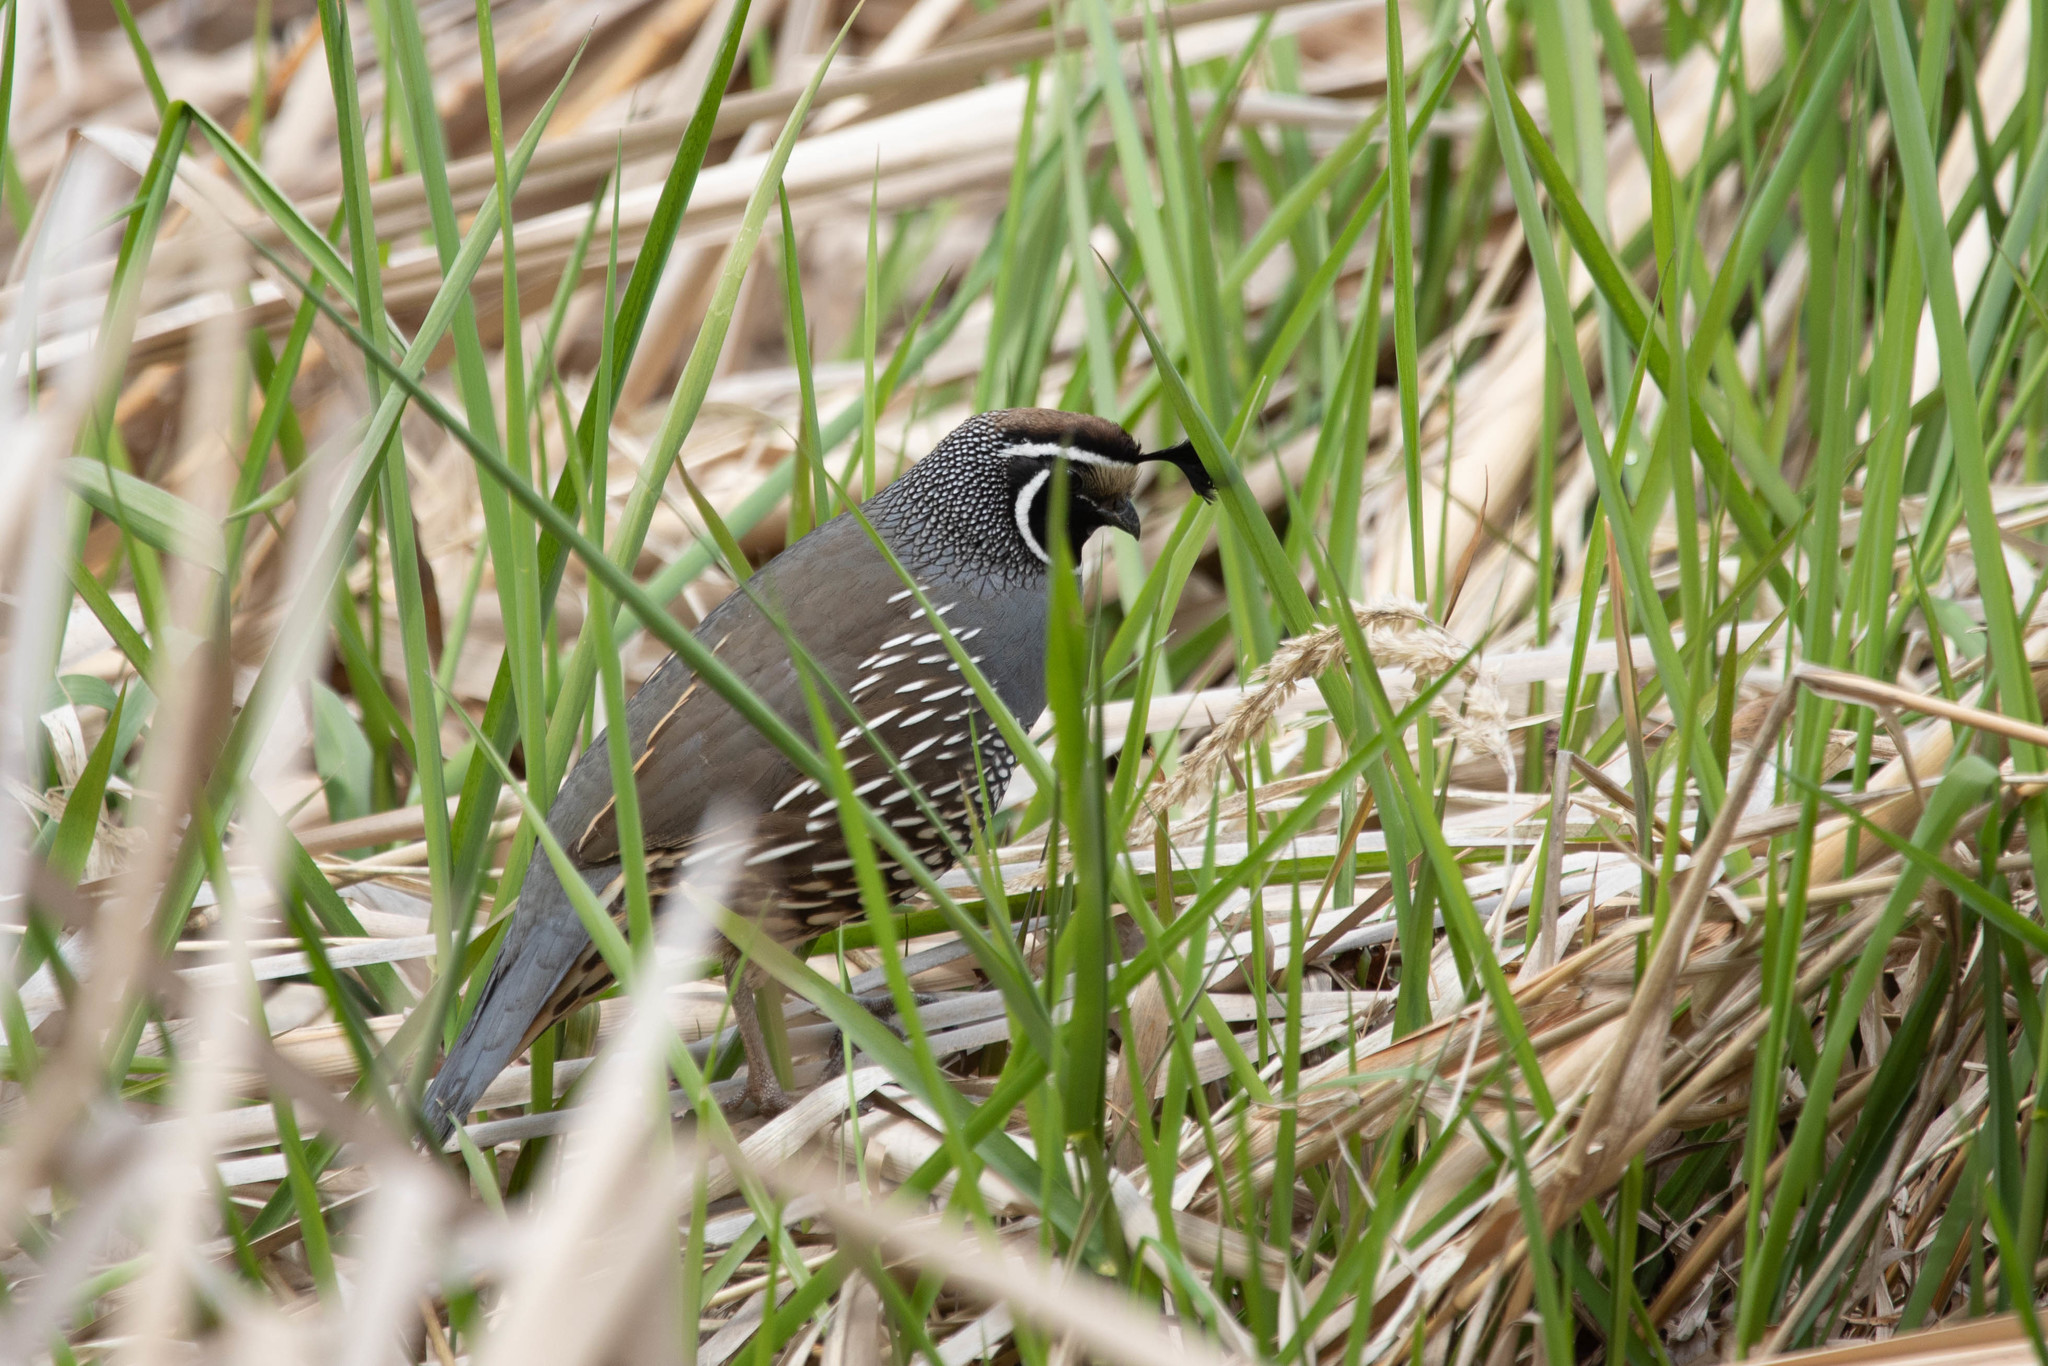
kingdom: Animalia
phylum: Chordata
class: Aves
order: Galliformes
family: Odontophoridae
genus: Callipepla
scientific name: Callipepla californica
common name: California quail
